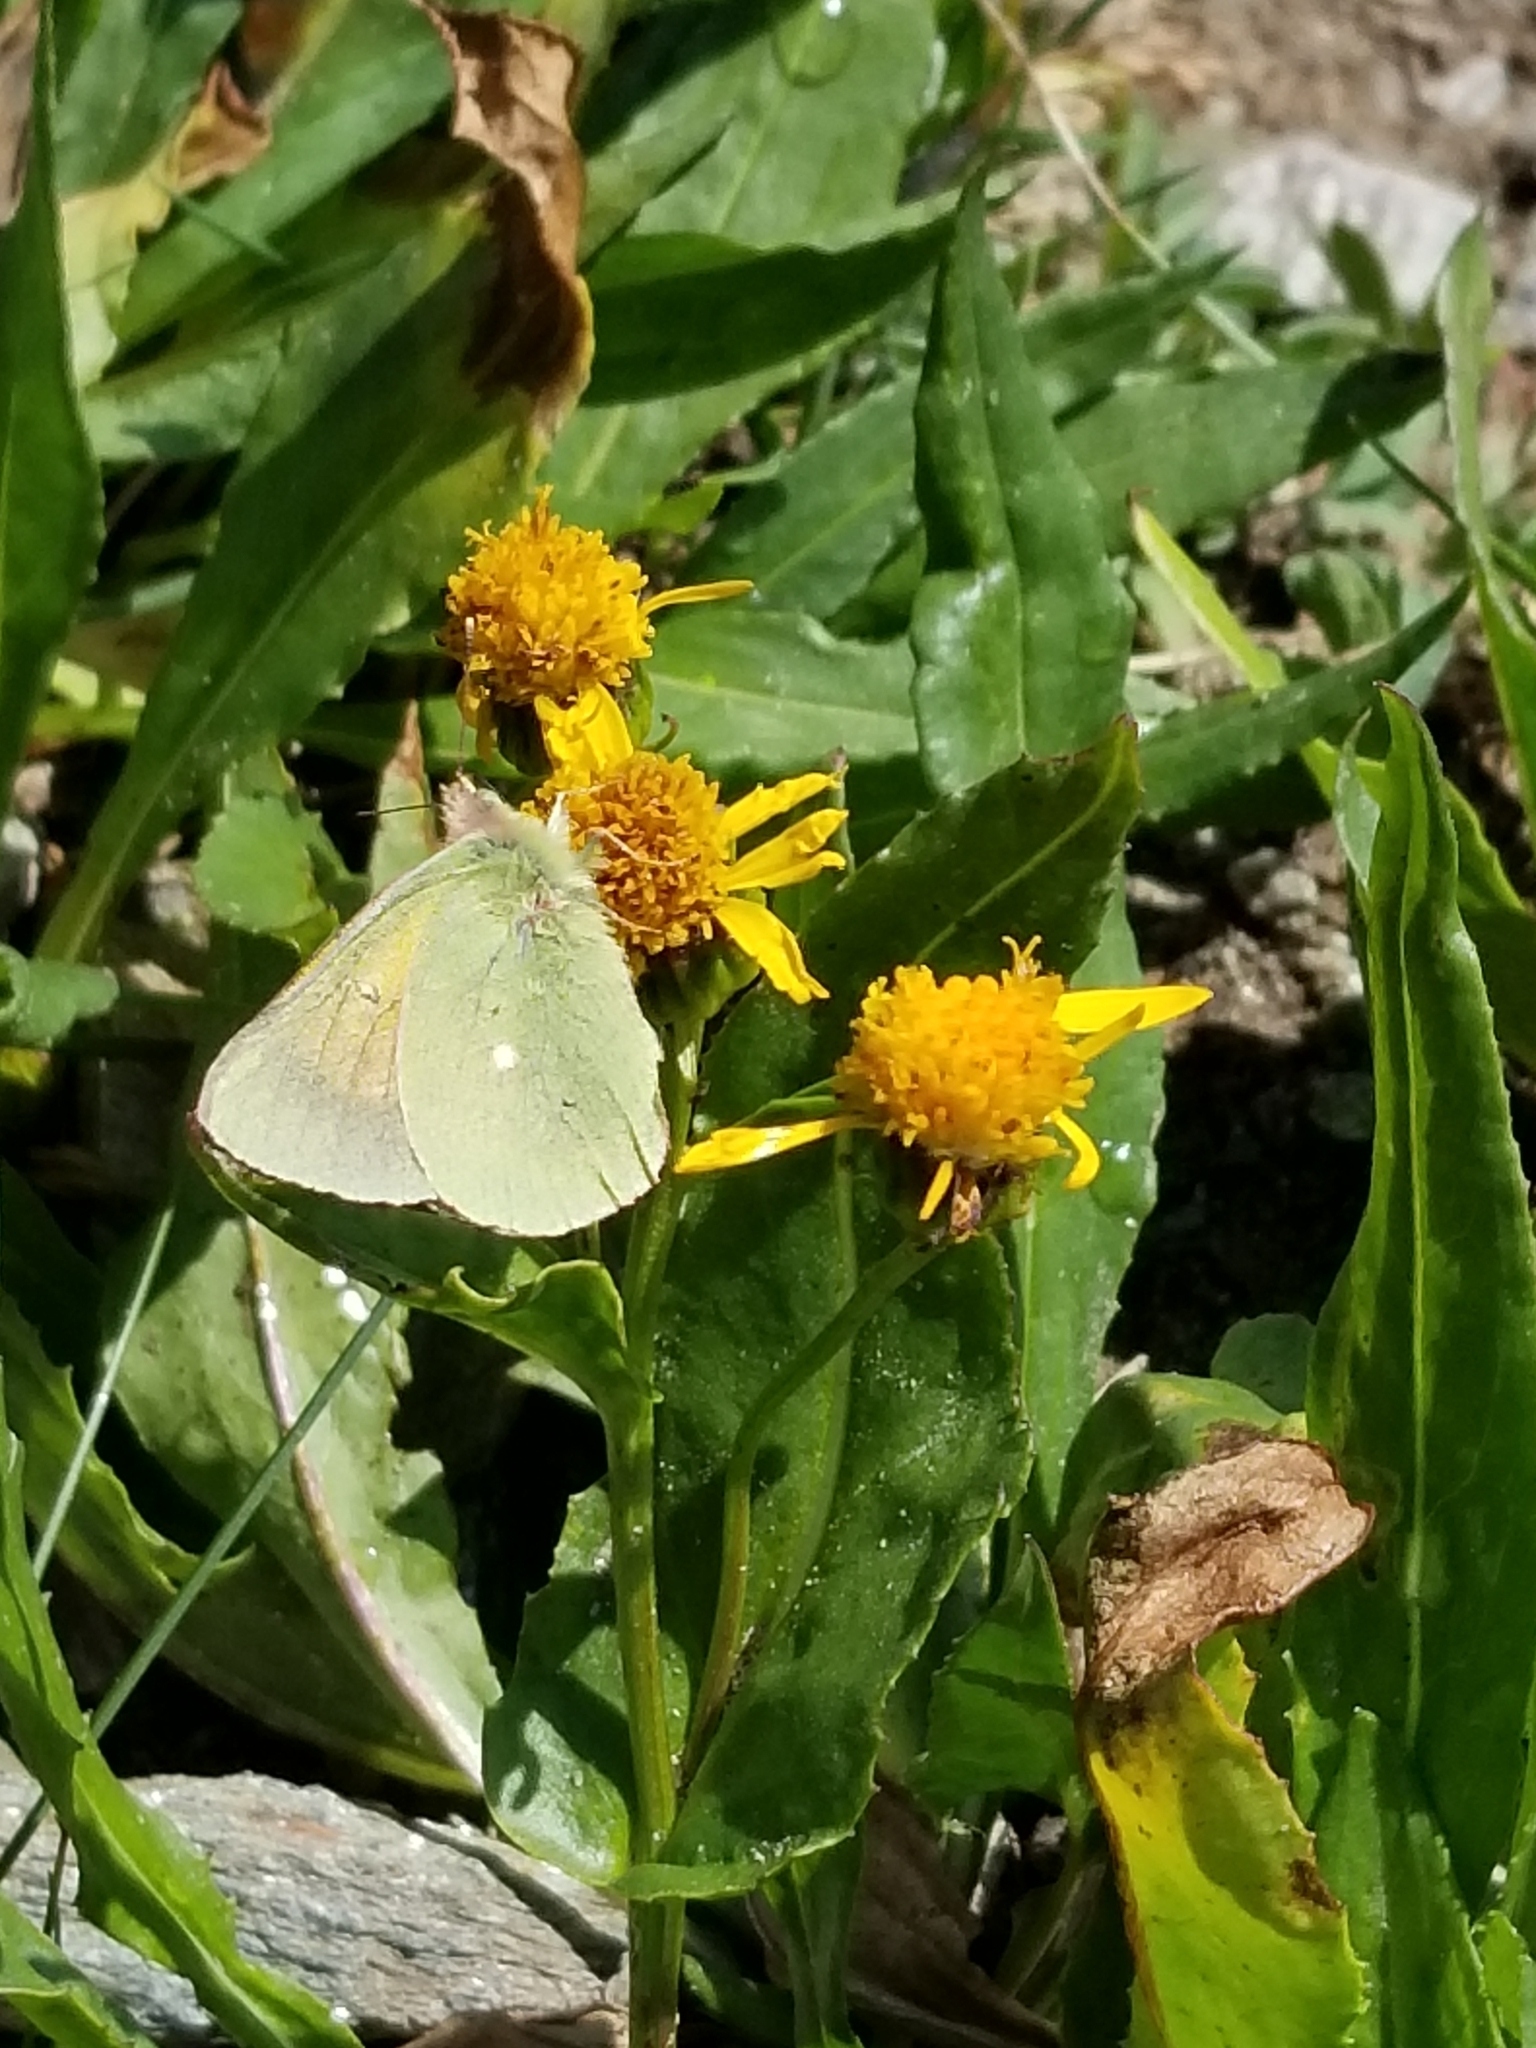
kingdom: Animalia
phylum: Arthropoda
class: Insecta
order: Lepidoptera
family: Pieridae
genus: Colias
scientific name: Colias meadii
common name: Mead's sulphur
